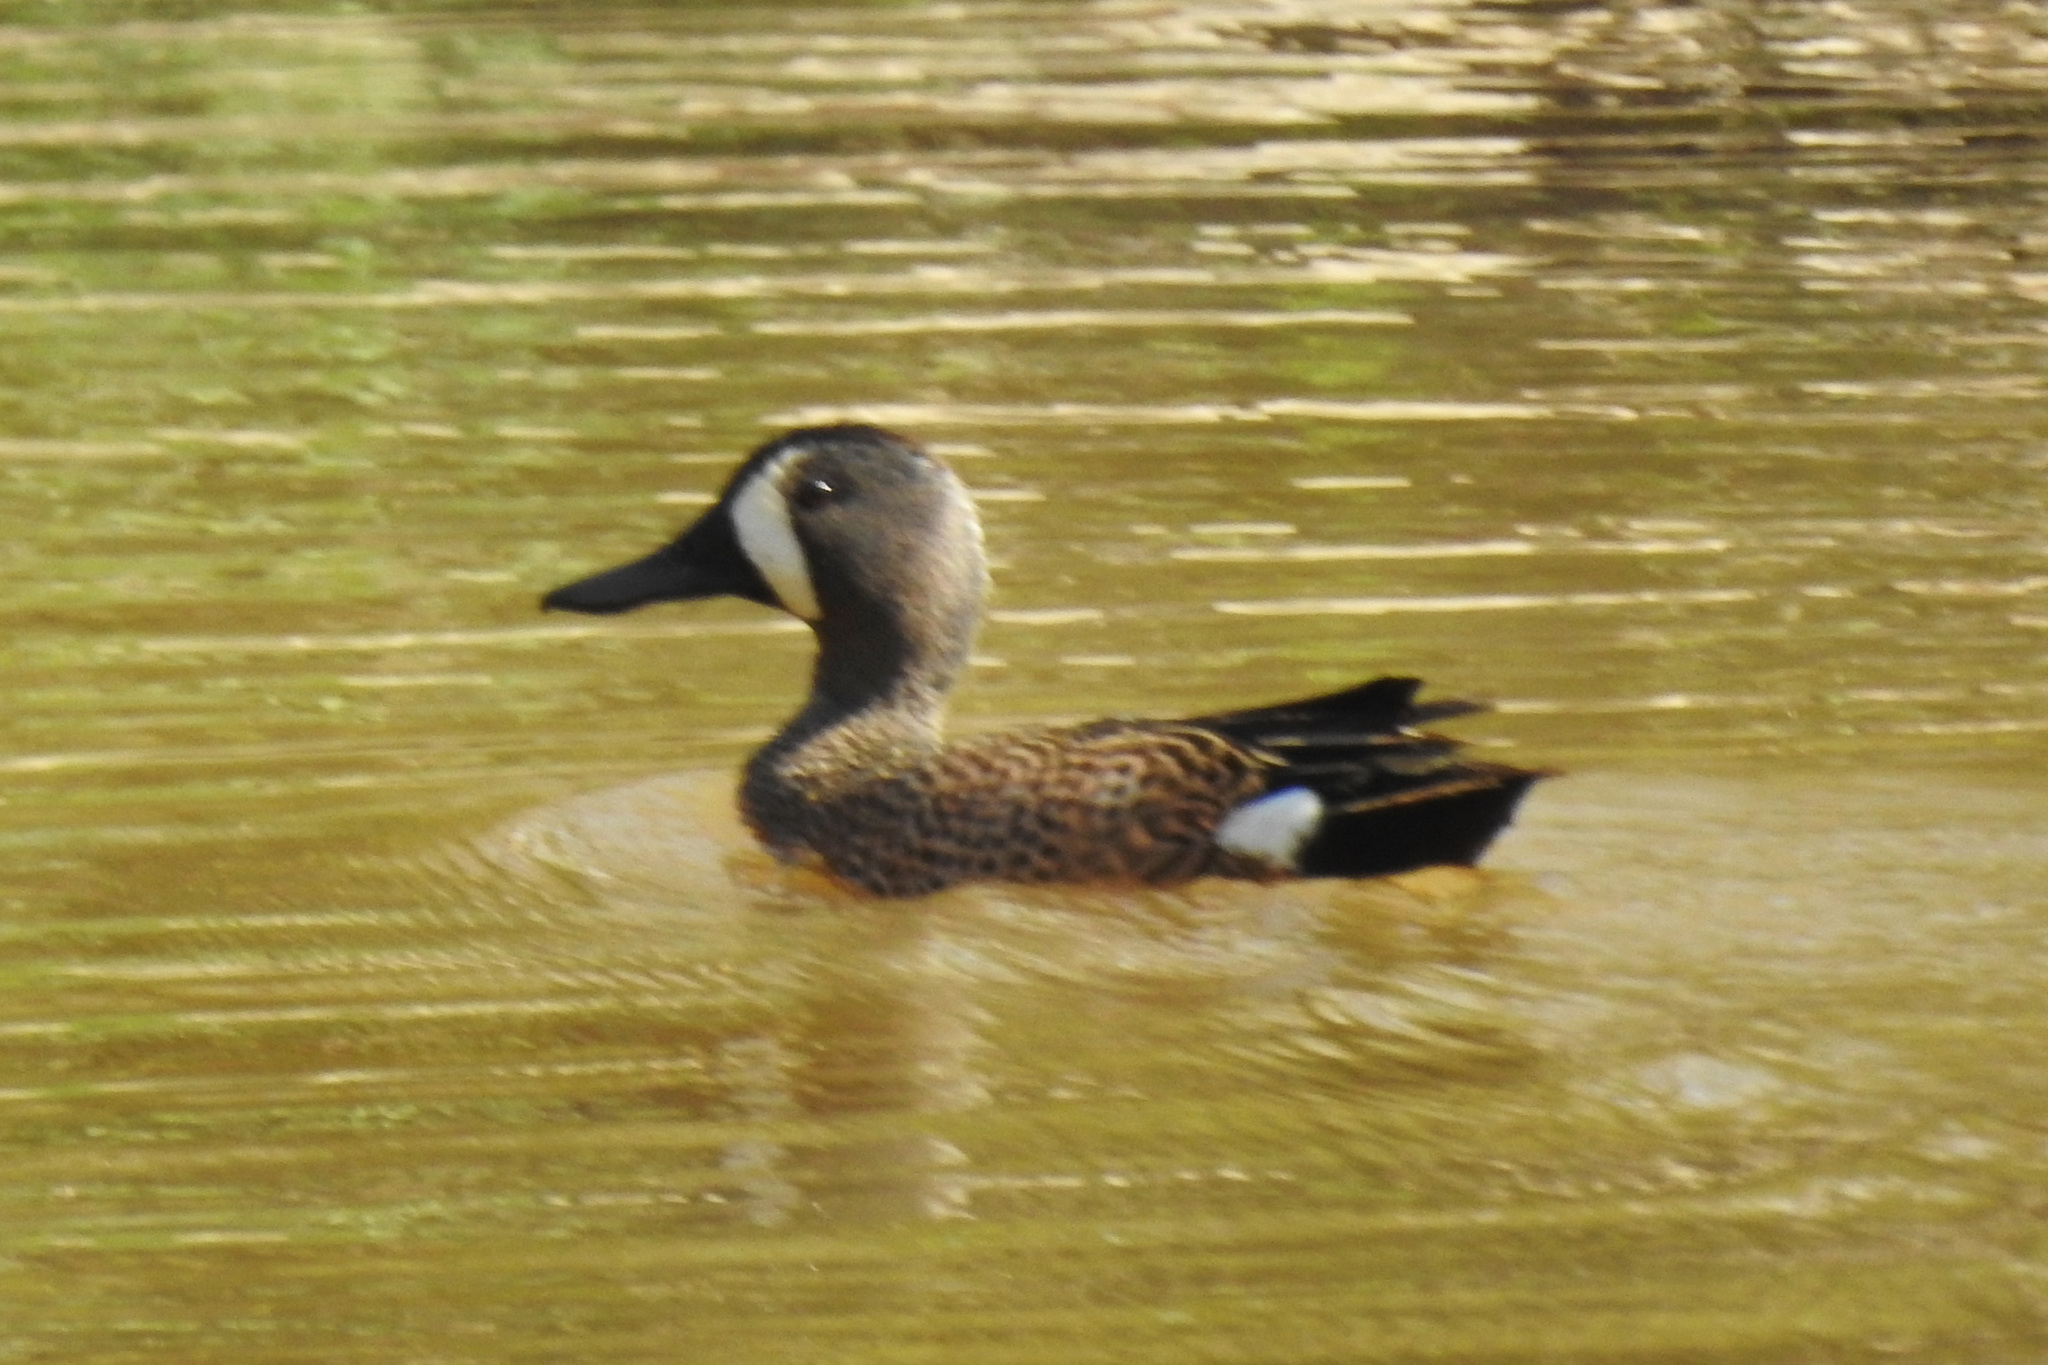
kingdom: Animalia
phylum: Chordata
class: Aves
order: Anseriformes
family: Anatidae
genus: Spatula
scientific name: Spatula discors
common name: Blue-winged teal
